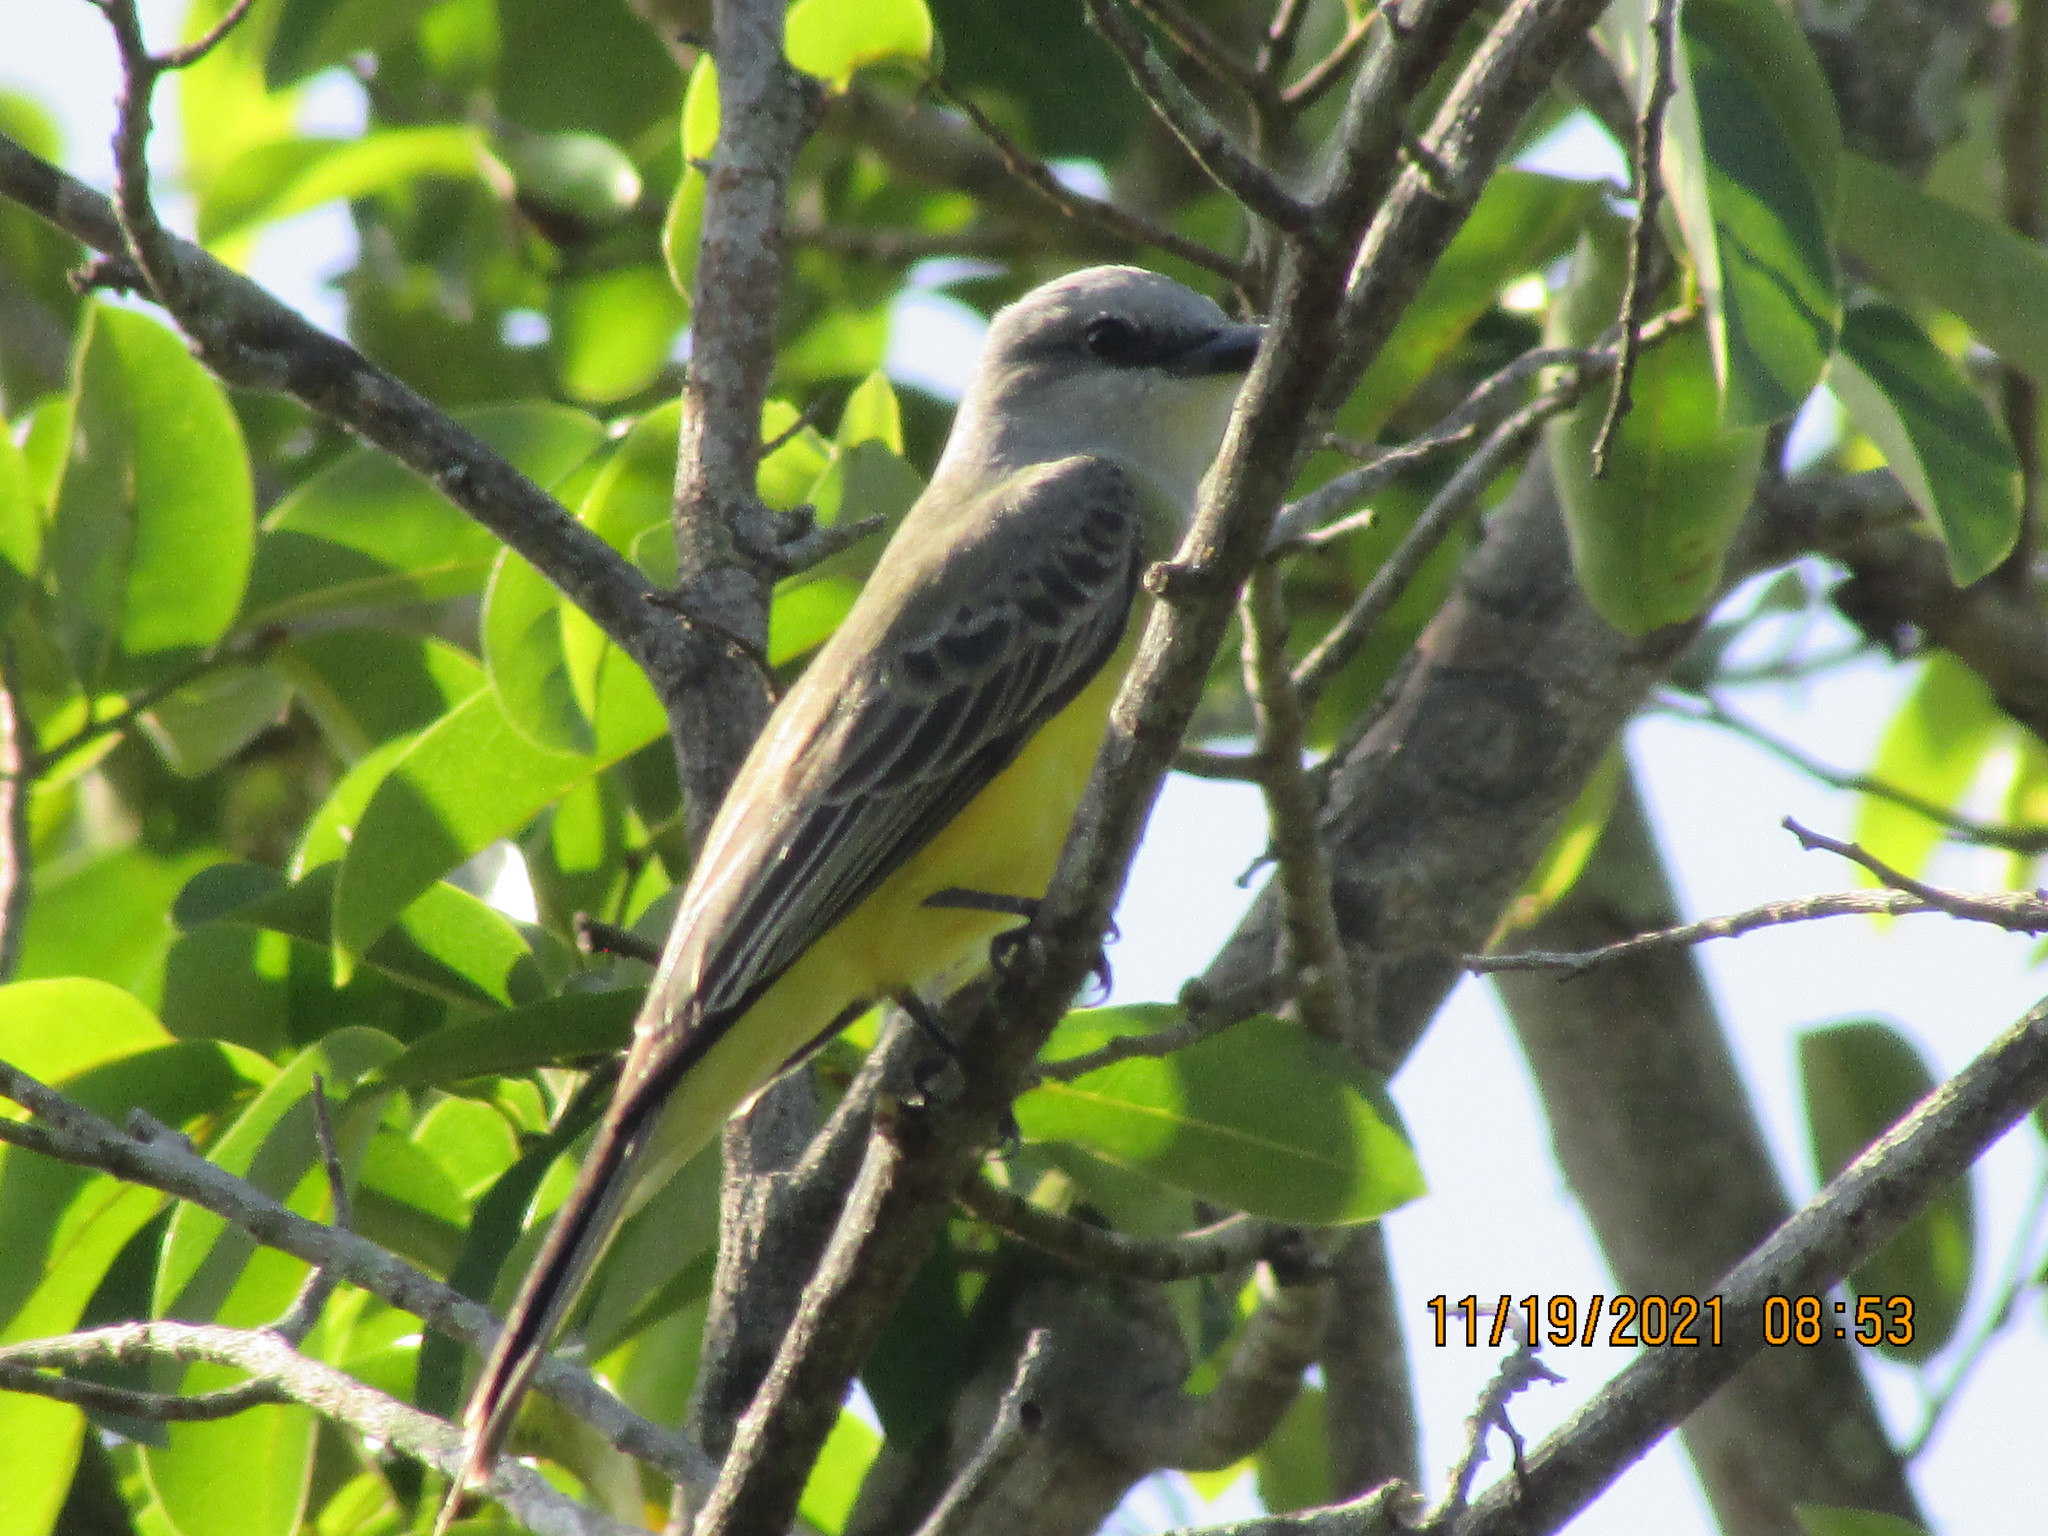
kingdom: Animalia
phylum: Chordata
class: Aves
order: Passeriformes
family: Tyrannidae
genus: Tyrannus
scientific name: Tyrannus melancholicus
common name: Tropical kingbird
